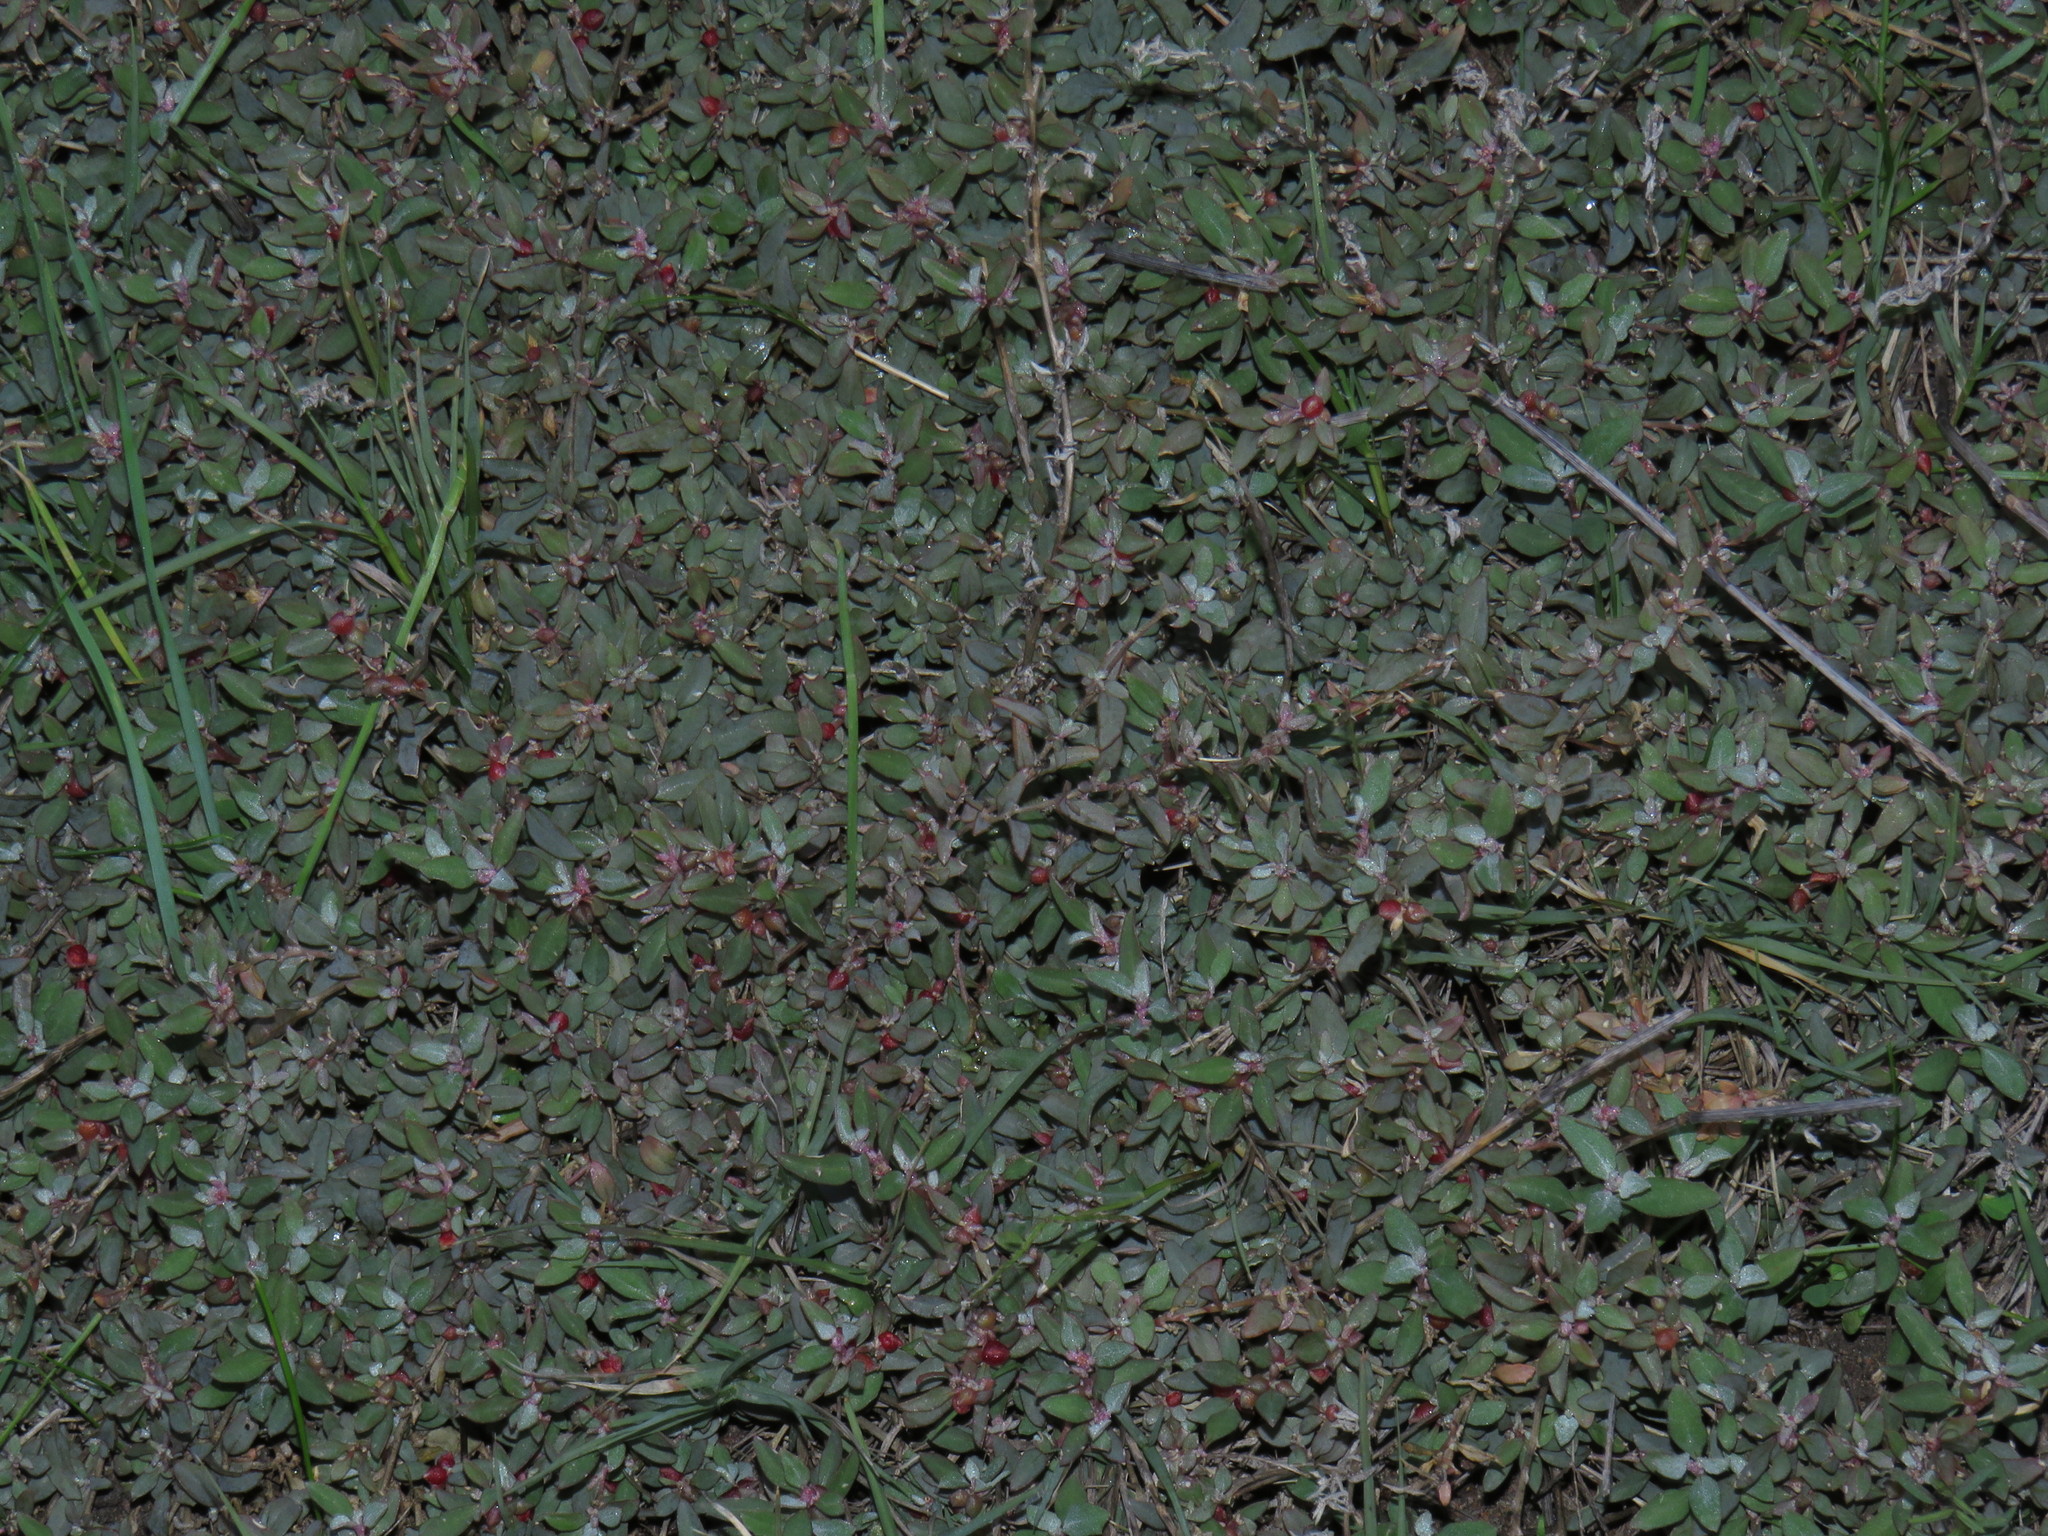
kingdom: Plantae
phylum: Tracheophyta
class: Magnoliopsida
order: Caryophyllales
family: Amaranthaceae
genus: Atriplex
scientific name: Atriplex semibaccata
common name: Australian saltbush
